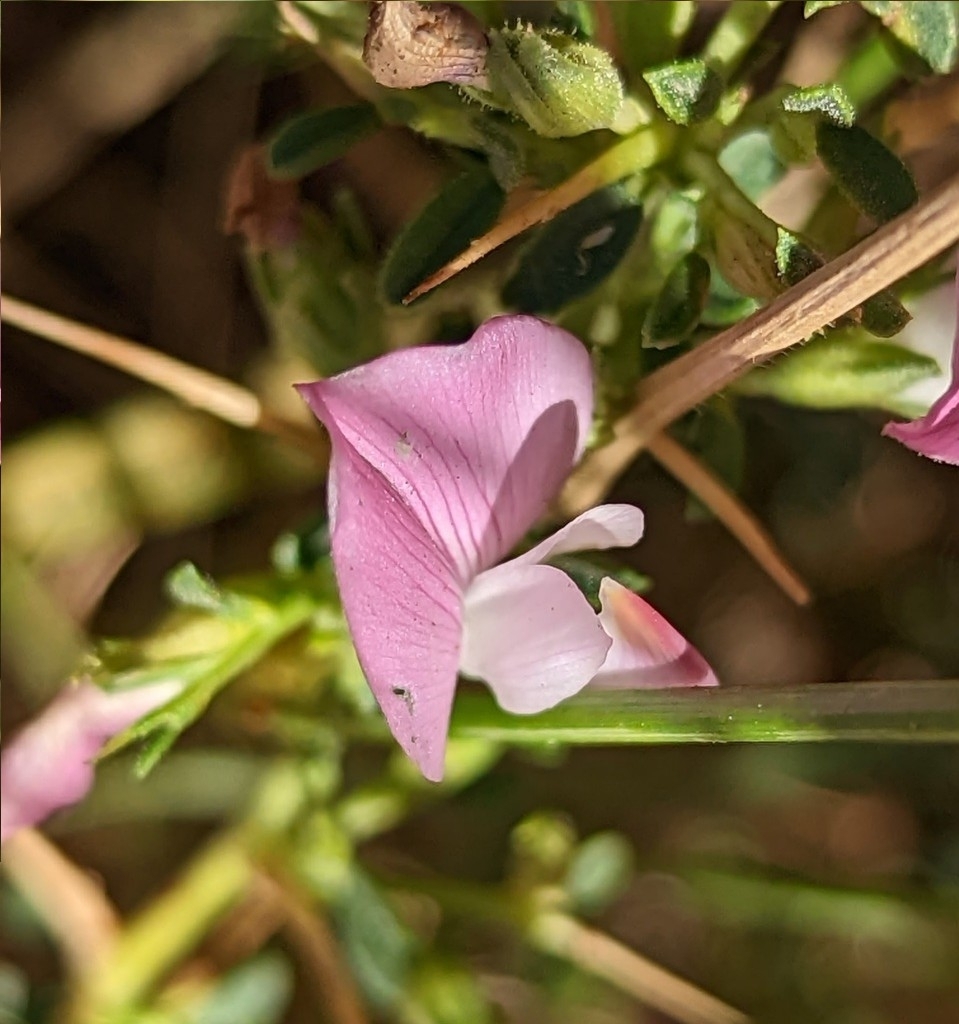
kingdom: Plantae
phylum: Tracheophyta
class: Magnoliopsida
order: Fabales
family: Fabaceae
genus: Ononis
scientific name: Ononis spinosa
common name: Spiny restharrow
